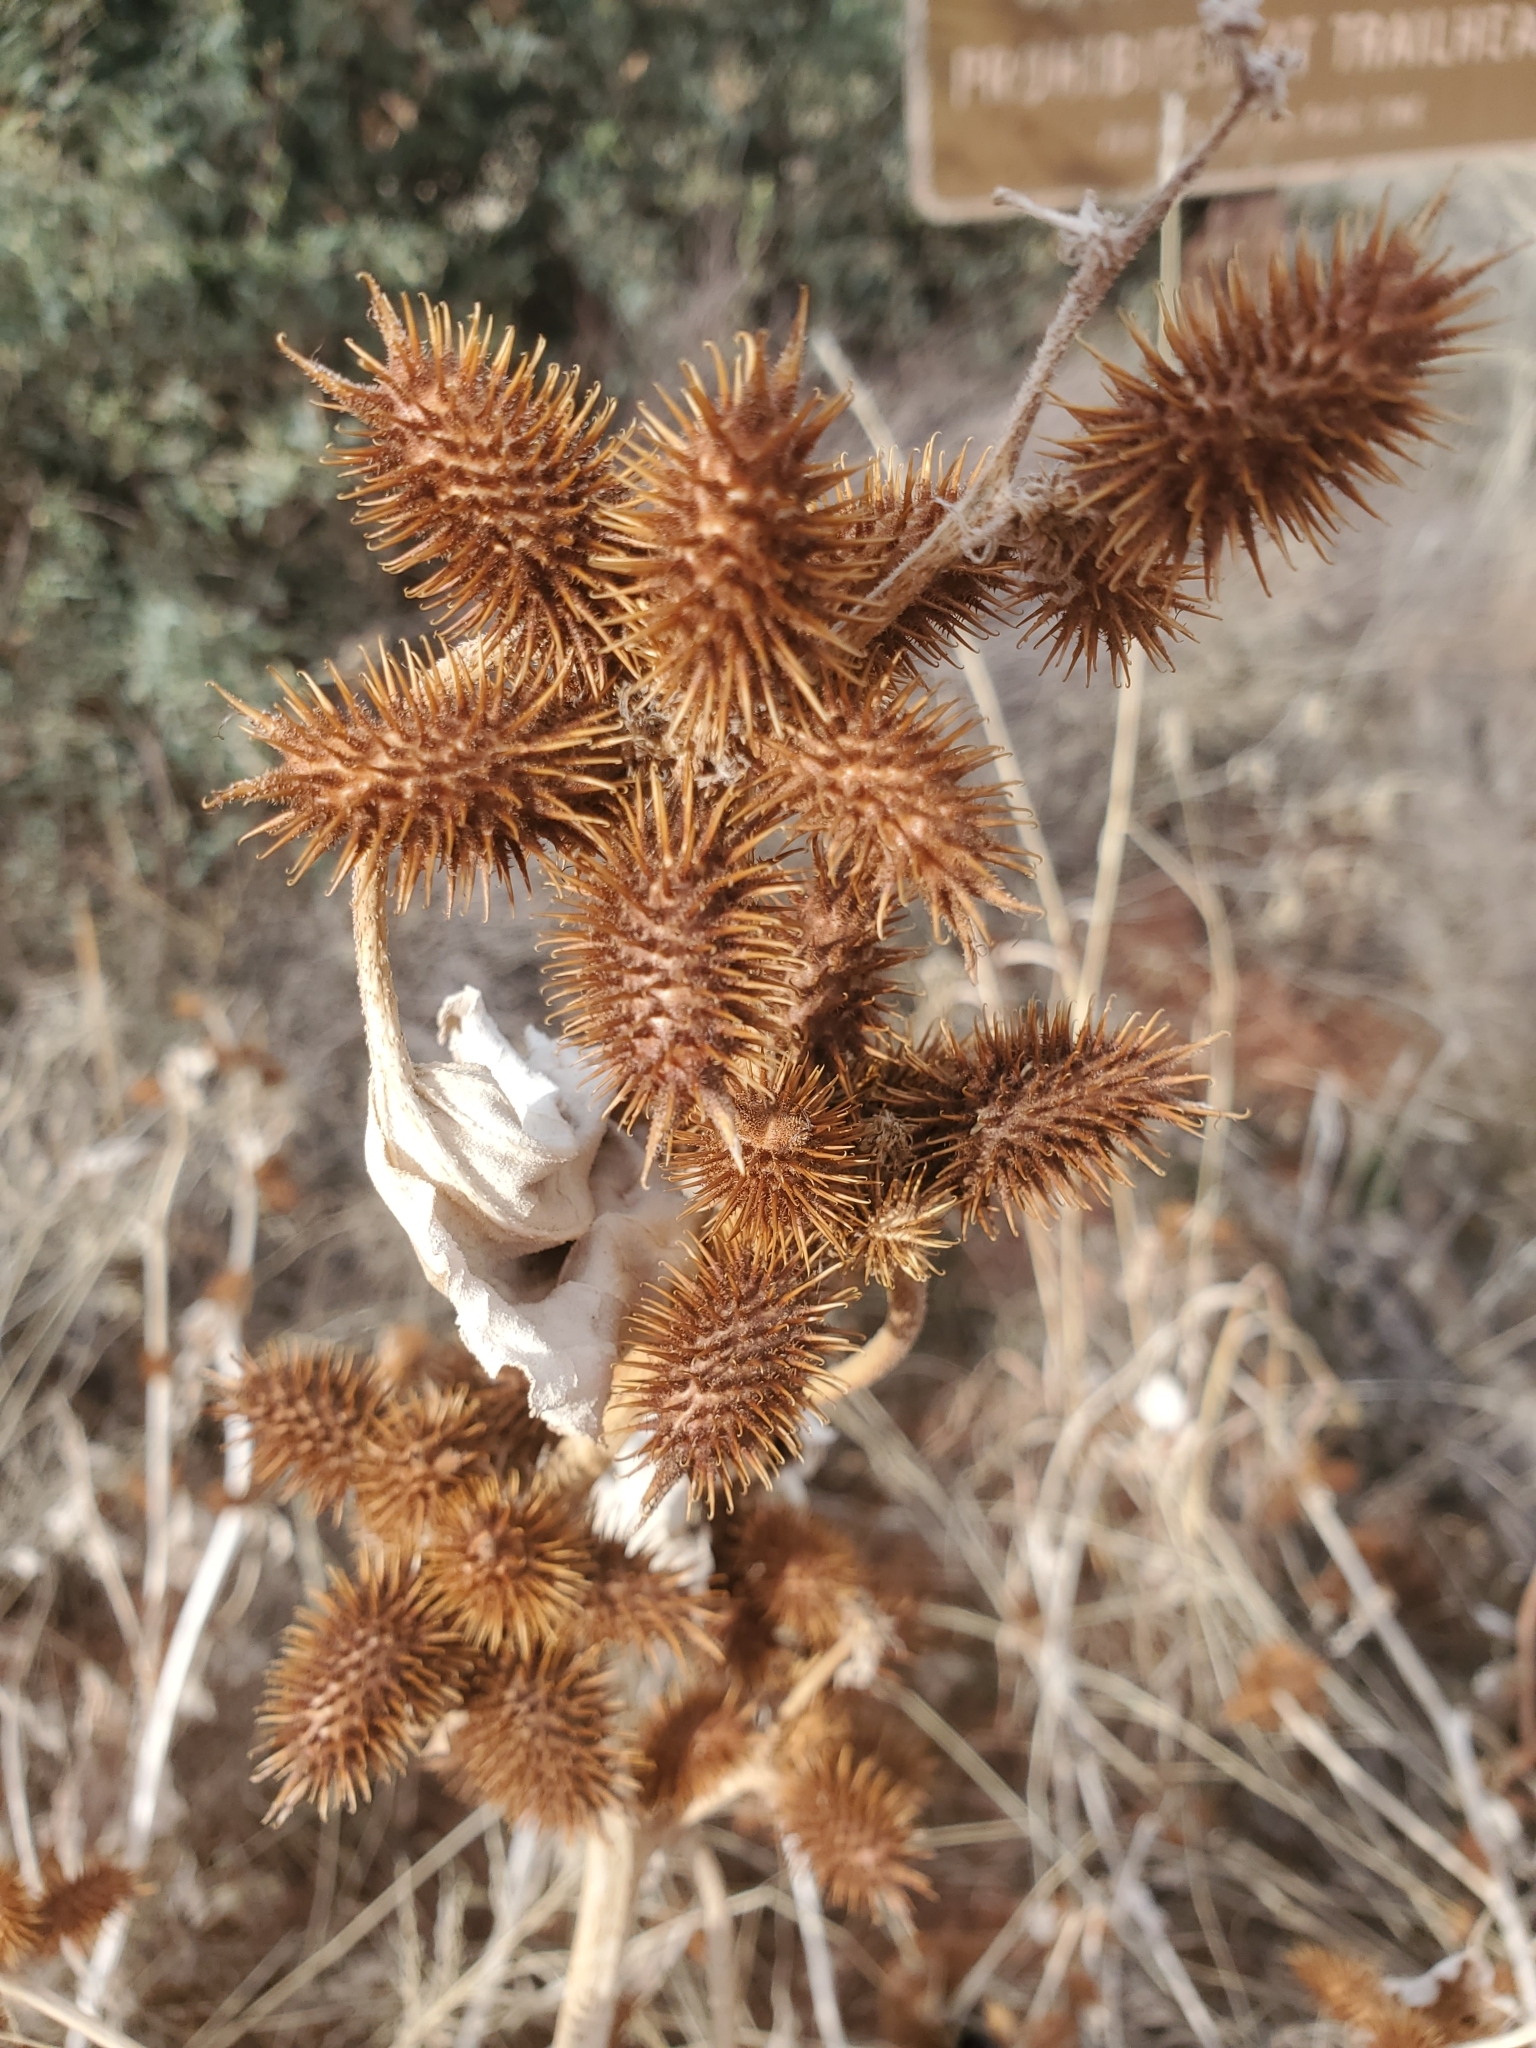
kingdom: Plantae
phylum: Tracheophyta
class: Magnoliopsida
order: Asterales
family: Asteraceae
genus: Xanthium
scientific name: Xanthium strumarium
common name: Rough cocklebur
